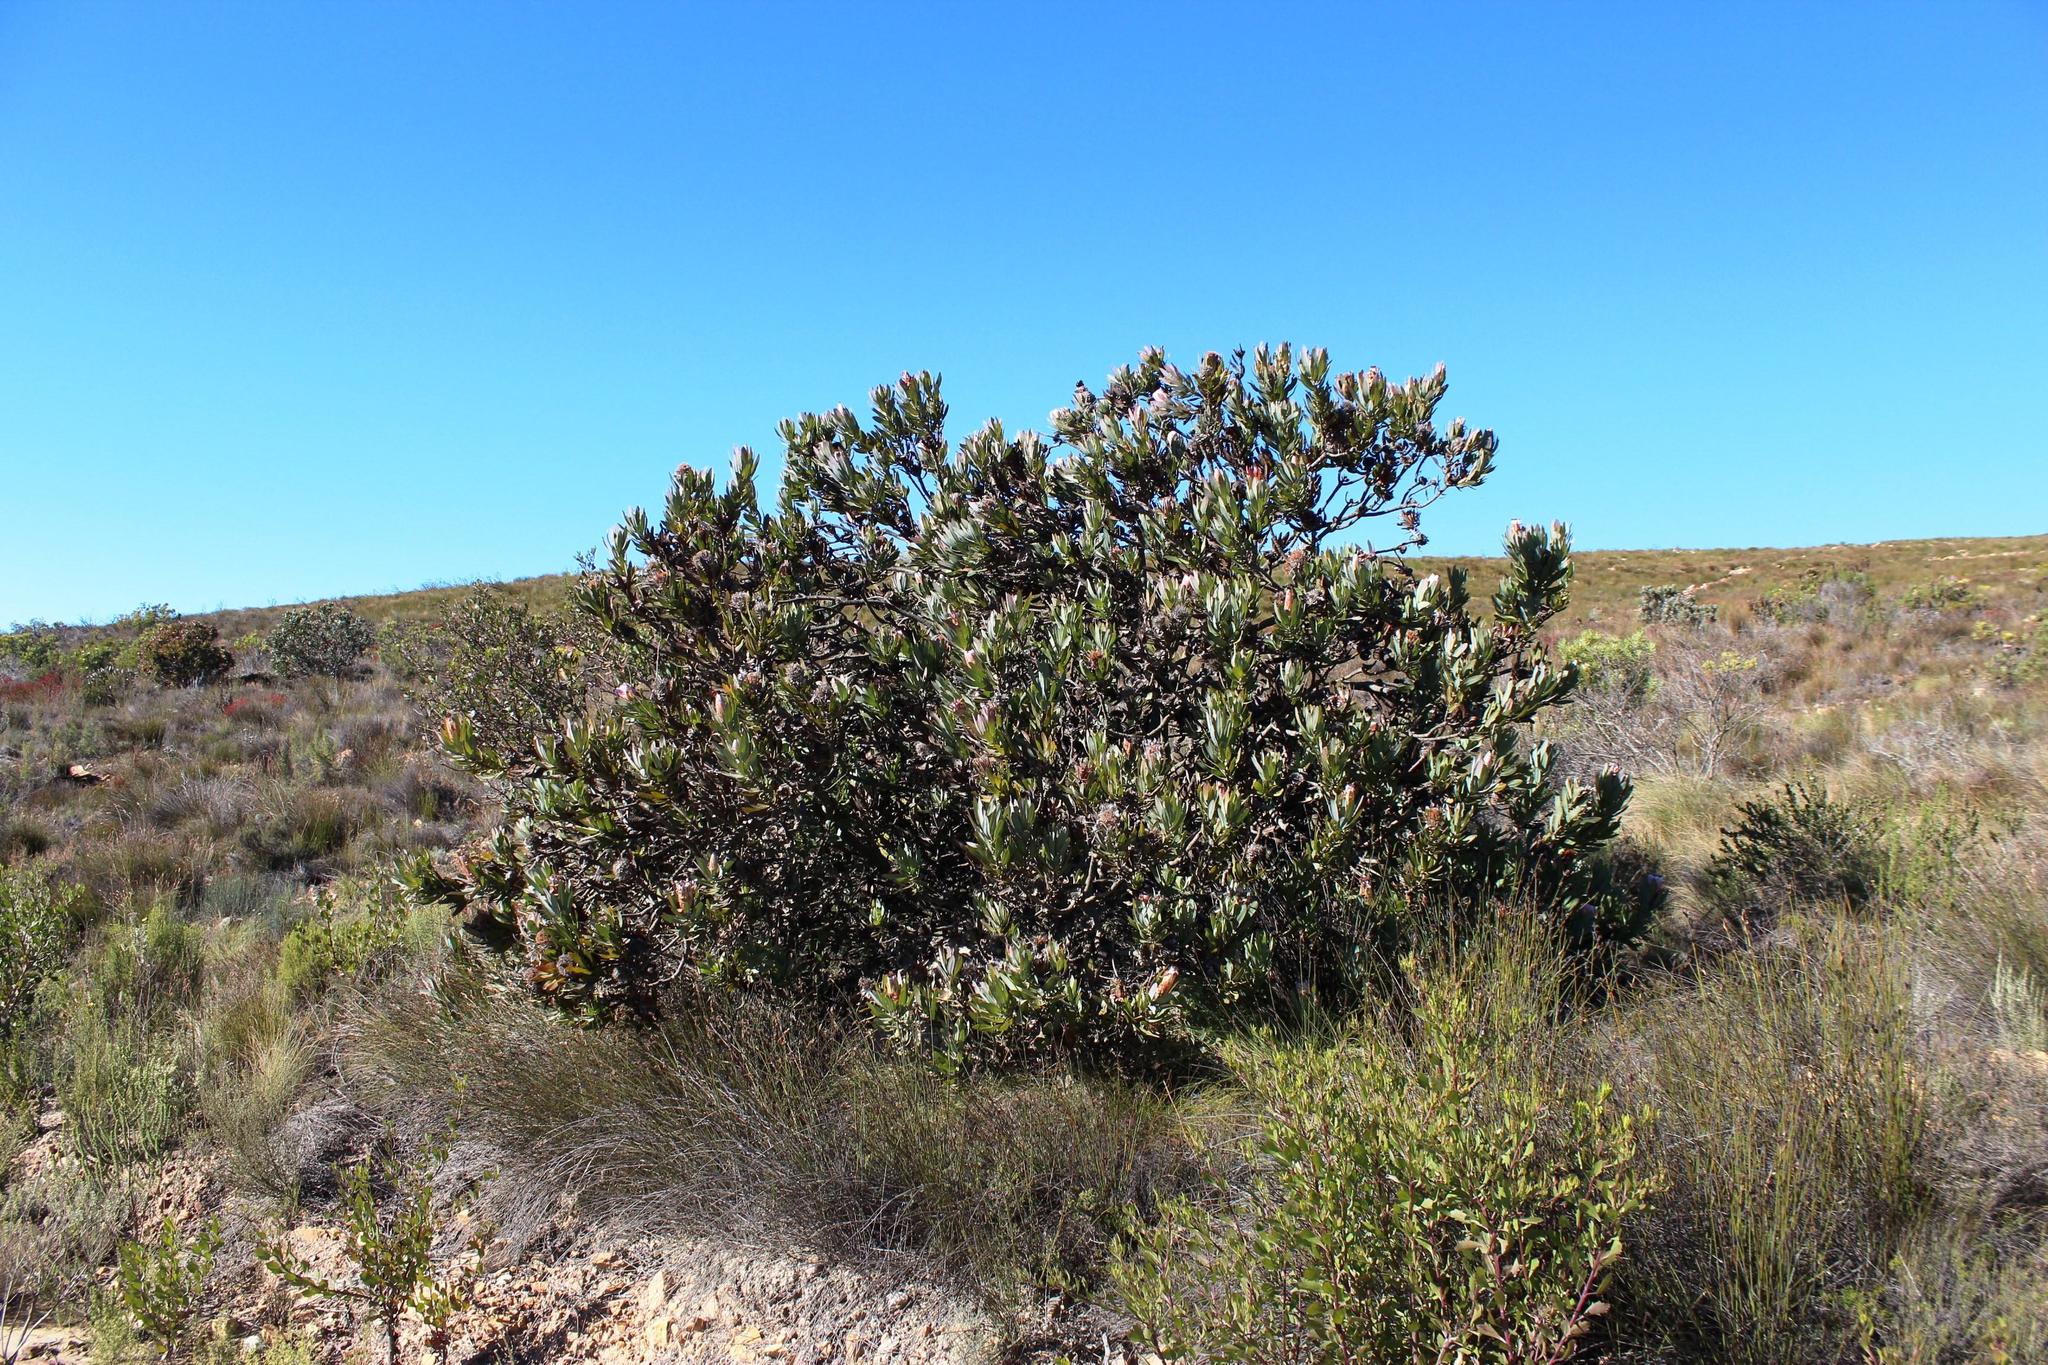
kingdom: Plantae
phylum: Tracheophyta
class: Magnoliopsida
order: Proteales
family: Proteaceae
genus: Protea
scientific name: Protea laurifolia
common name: Grey-leaf sugarbsh
